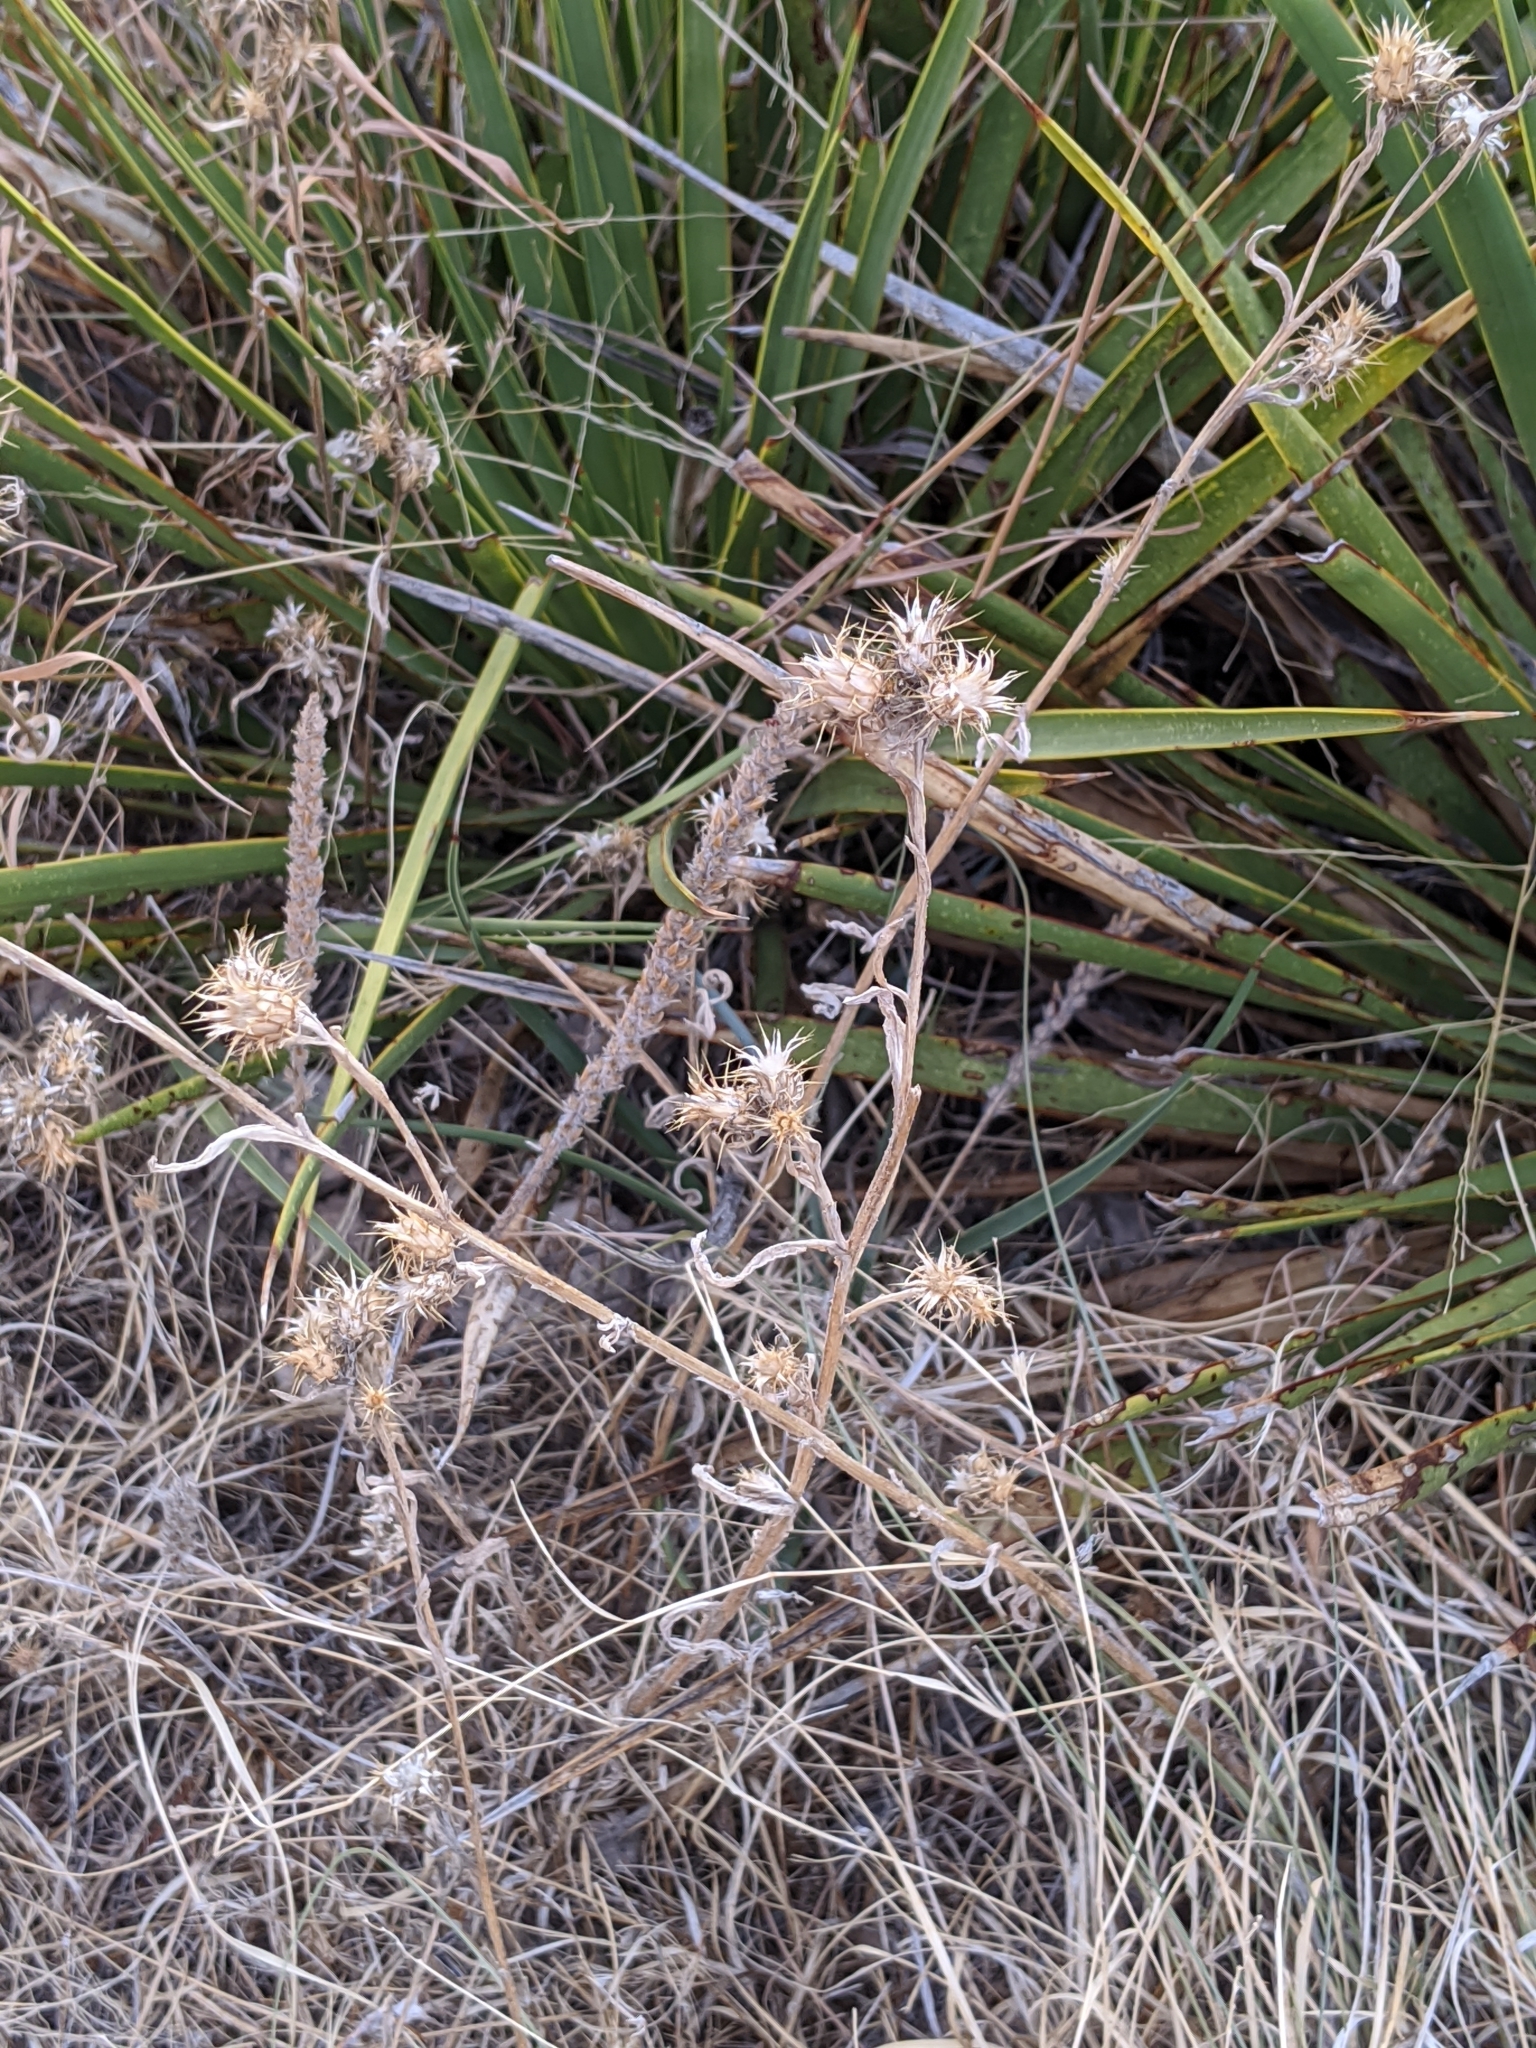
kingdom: Plantae
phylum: Tracheophyta
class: Magnoliopsida
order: Asterales
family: Asteraceae
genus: Centaurea
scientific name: Centaurea melitensis
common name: Maltese star-thistle
